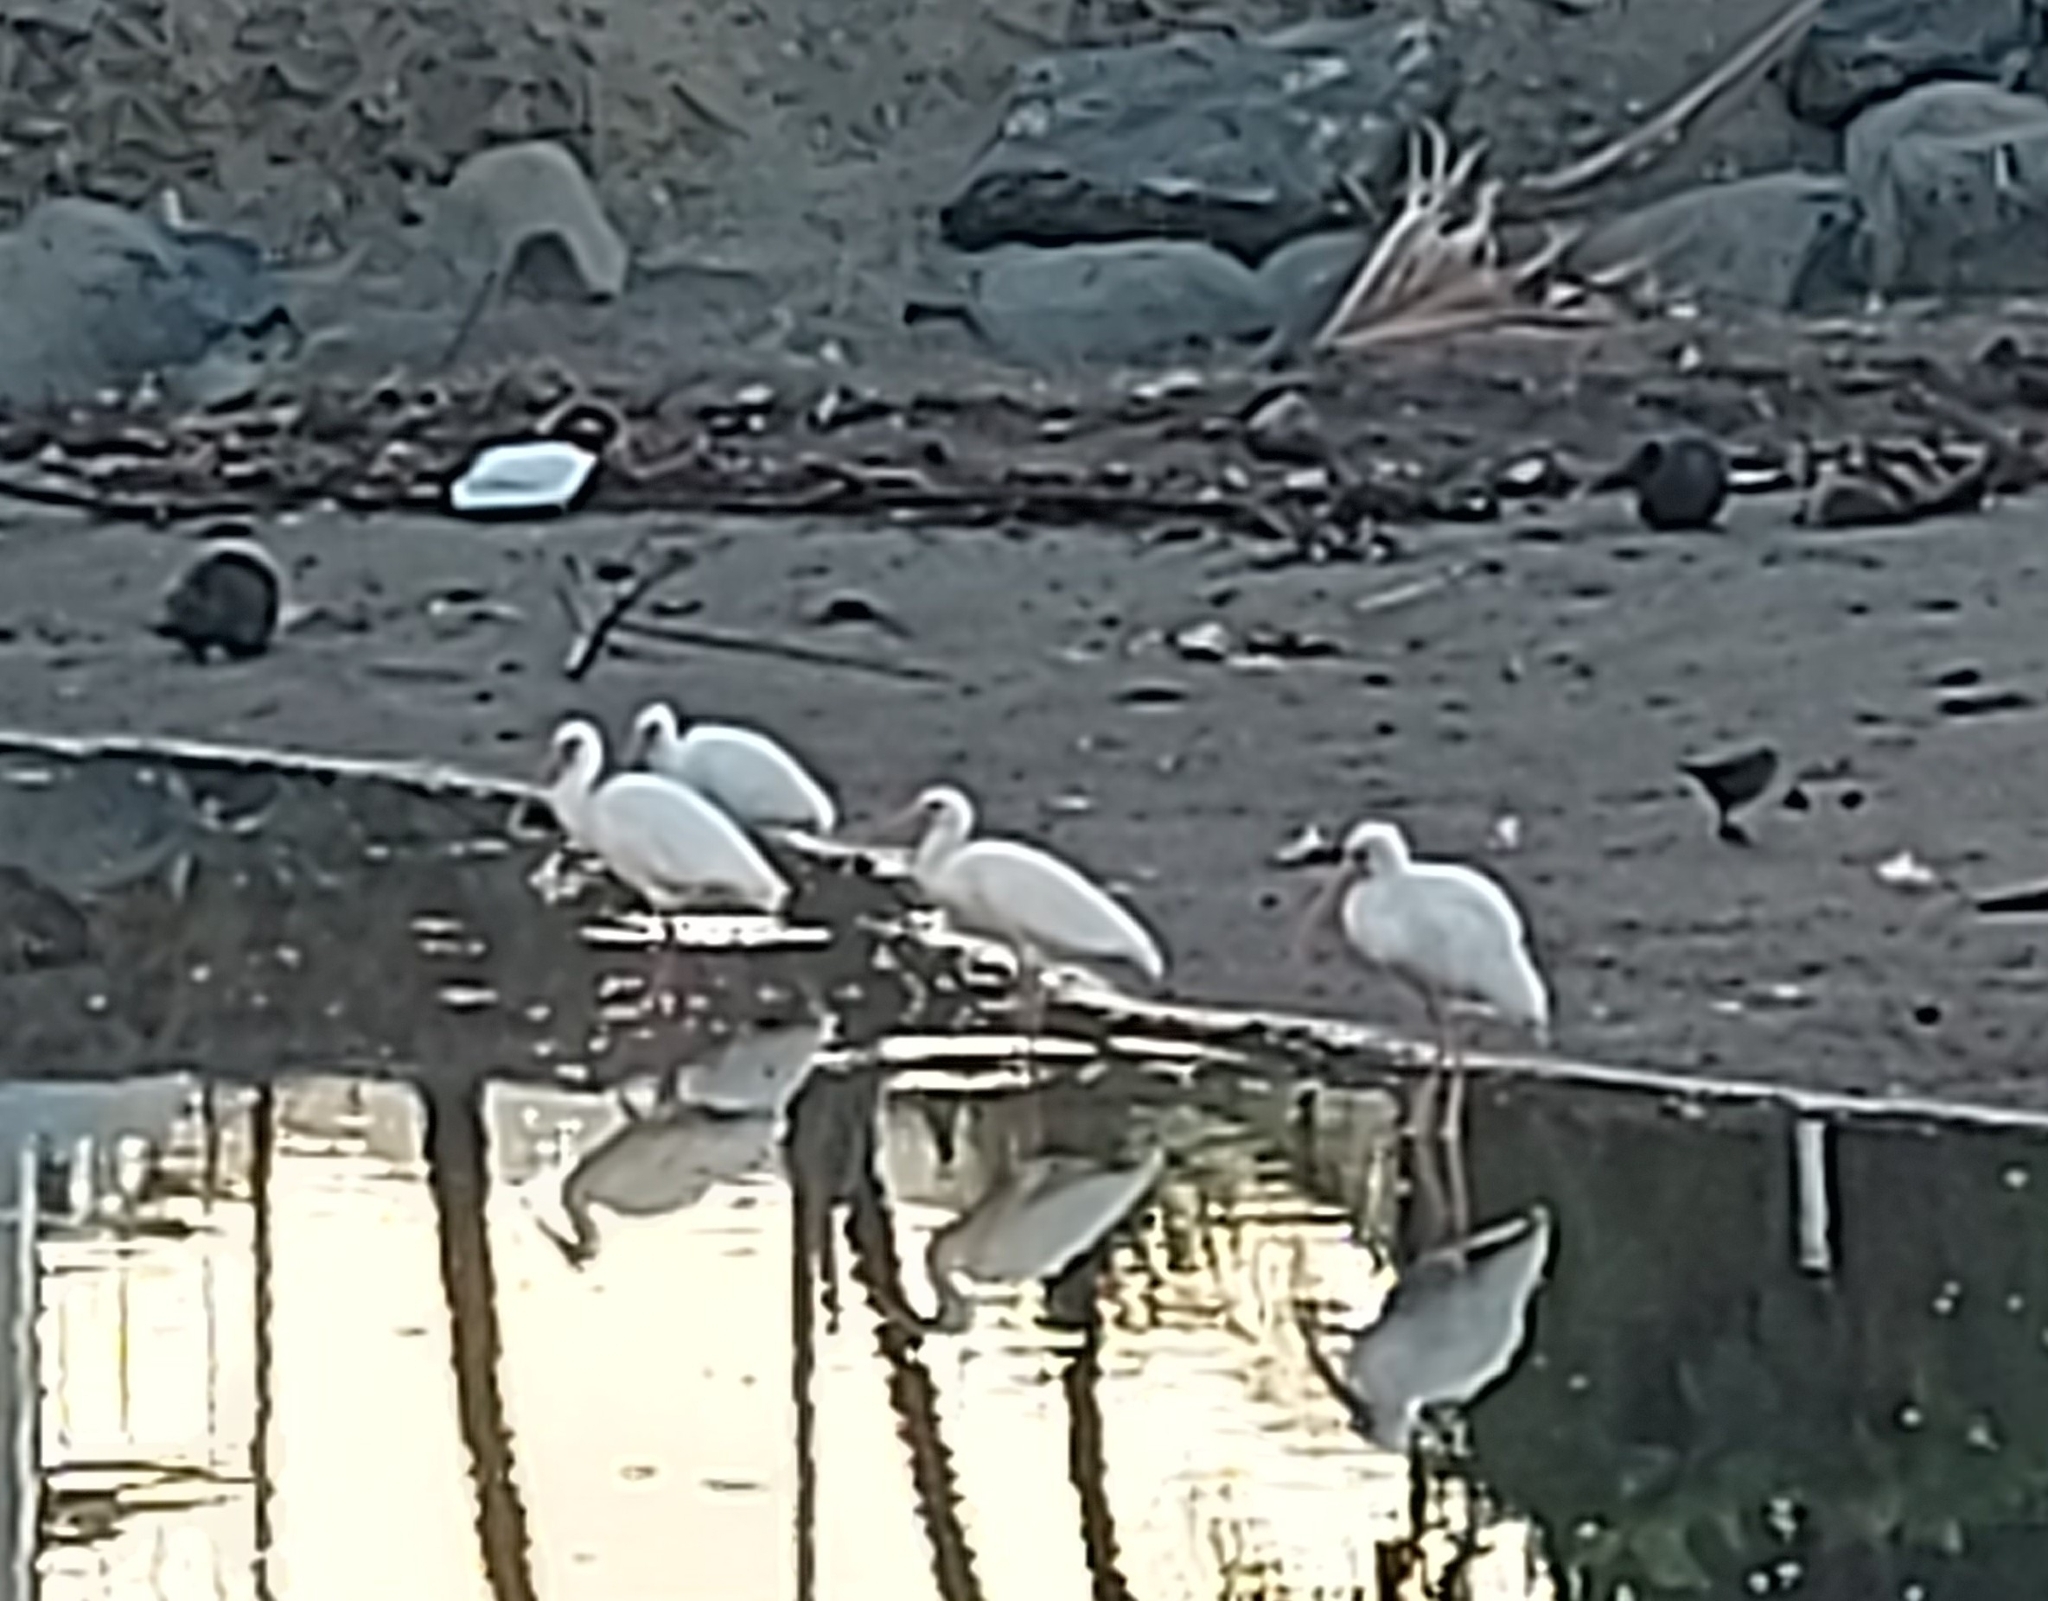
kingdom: Animalia
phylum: Chordata
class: Aves
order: Pelecaniformes
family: Threskiornithidae
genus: Eudocimus
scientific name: Eudocimus albus
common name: White ibis
